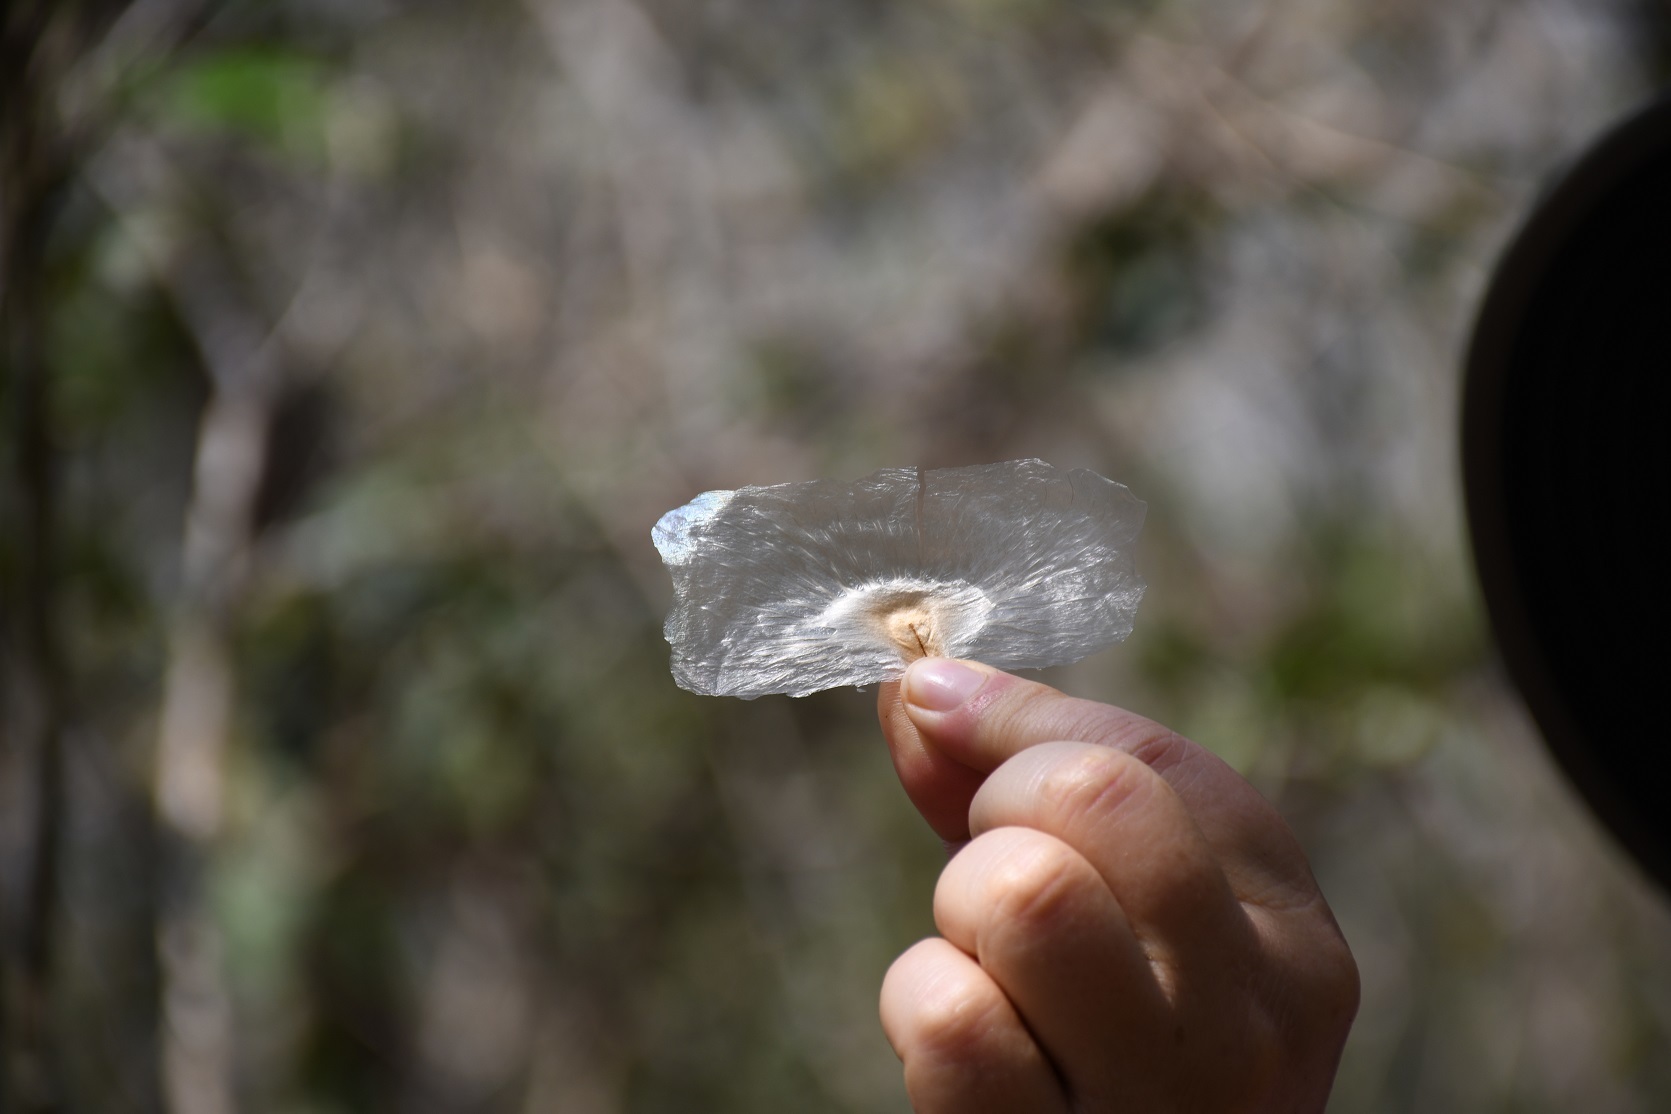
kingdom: Plantae
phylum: Tracheophyta
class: Magnoliopsida
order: Lamiales
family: Bignoniaceae
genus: Anemopaegma
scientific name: Anemopaegma chrysanthum
